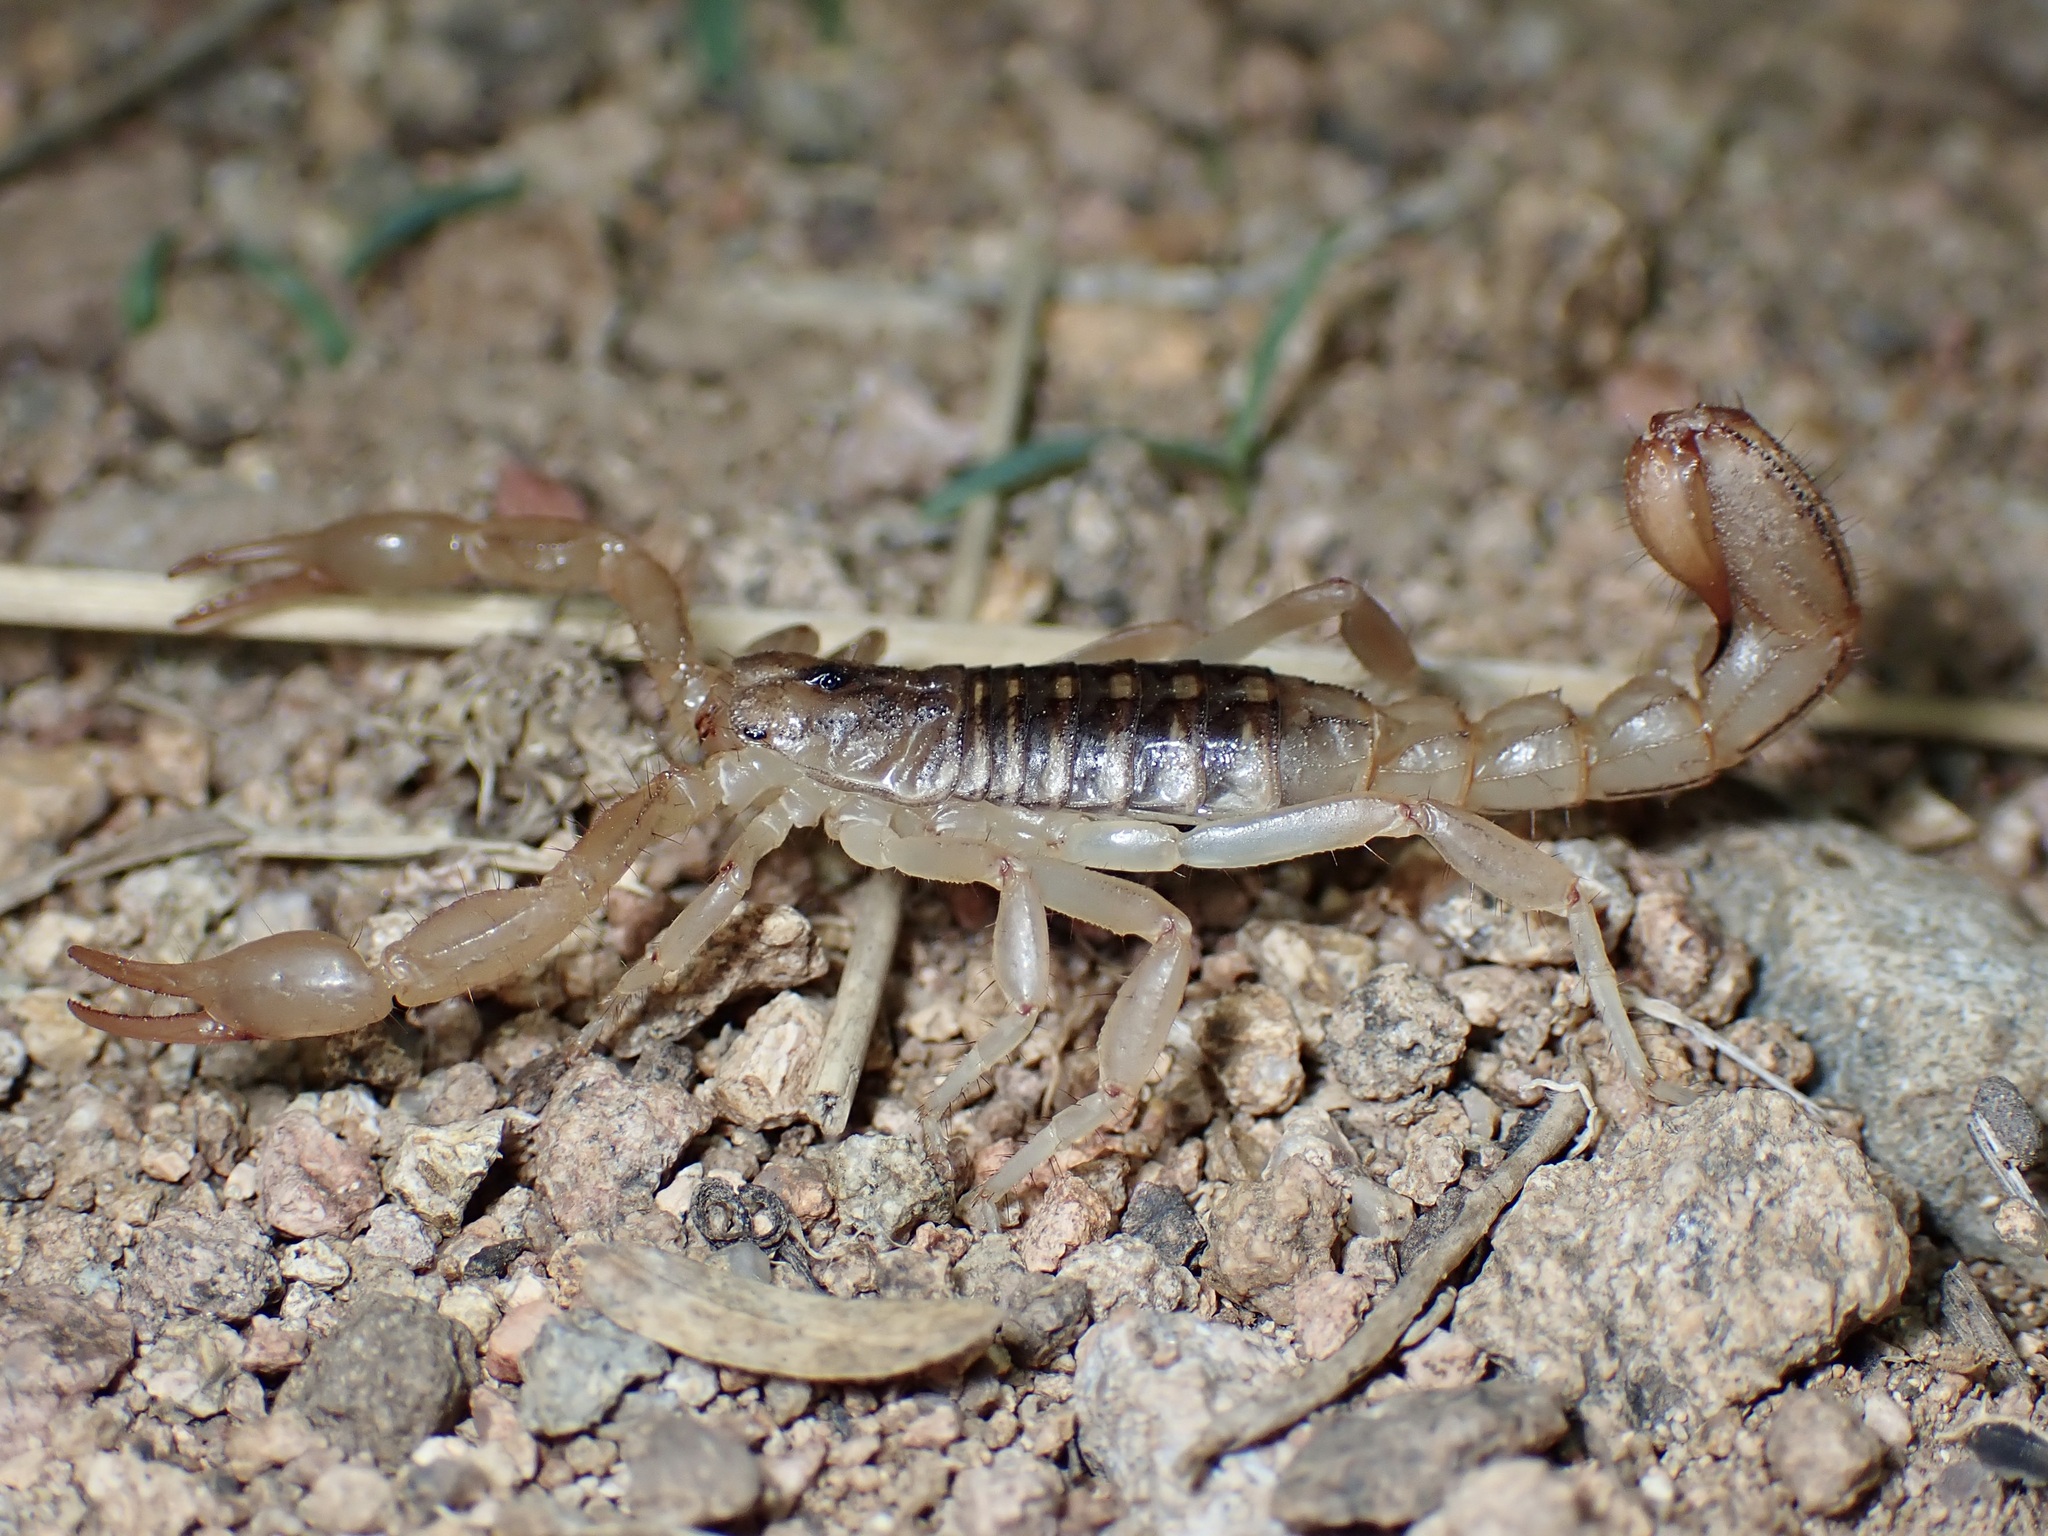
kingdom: Animalia
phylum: Arthropoda
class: Arachnida
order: Scorpiones
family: Vaejovidae
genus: Paravaejovis
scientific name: Paravaejovis spinigerus
